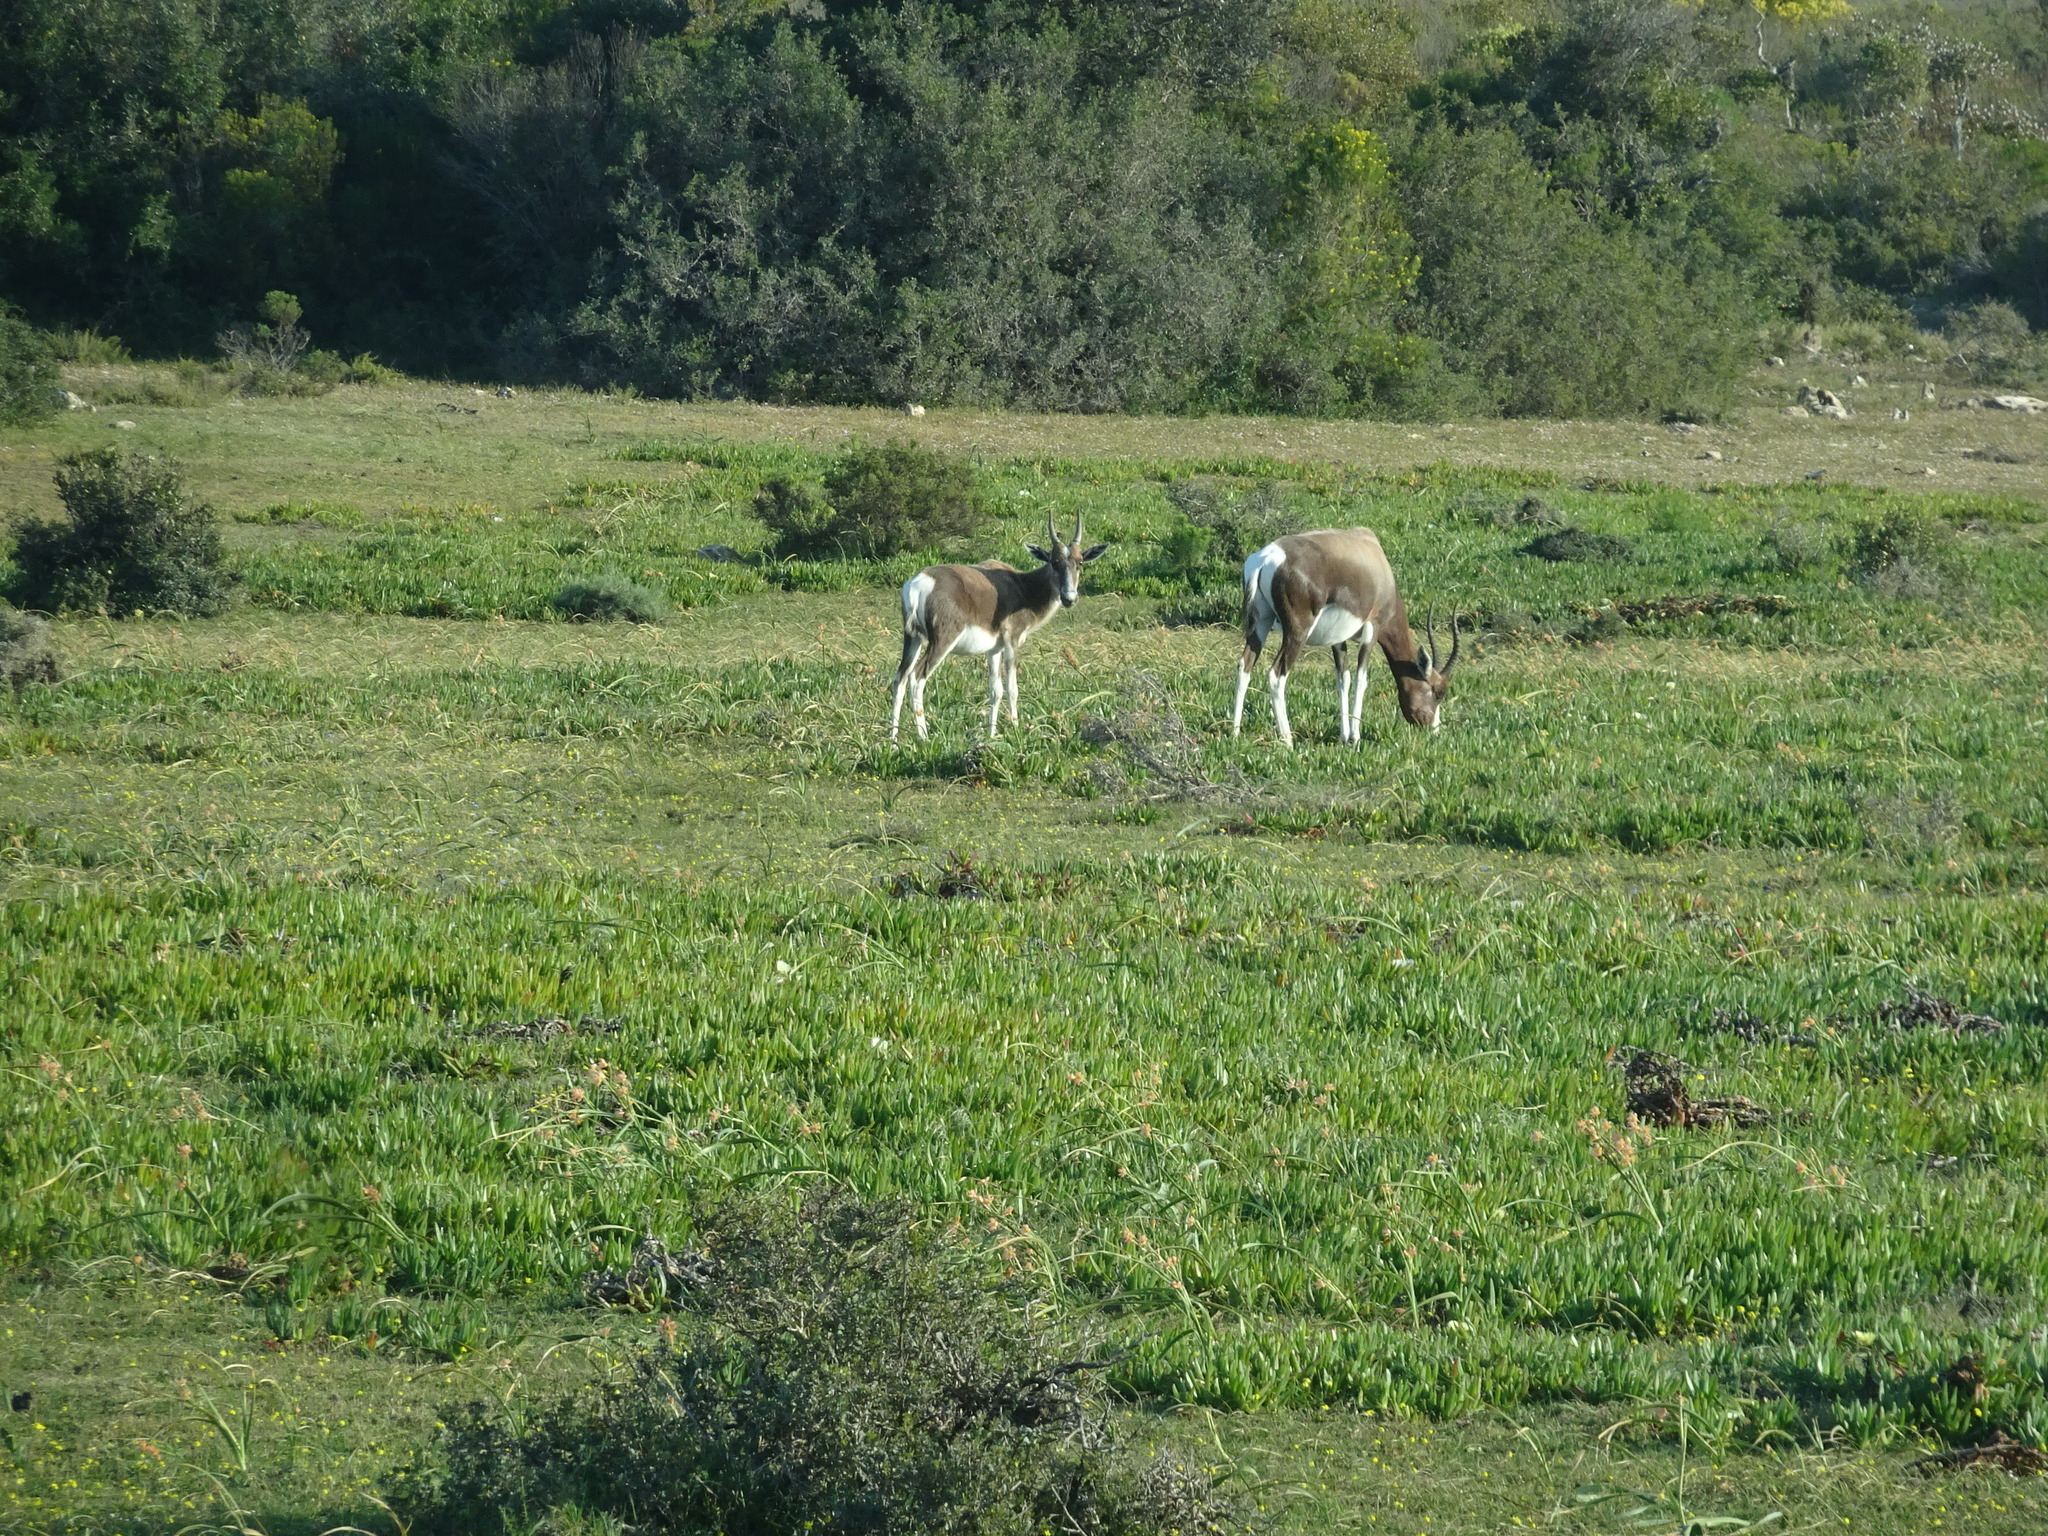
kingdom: Animalia
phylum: Chordata
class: Mammalia
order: Artiodactyla
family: Bovidae
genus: Damaliscus
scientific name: Damaliscus pygargus
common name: Bontebok
